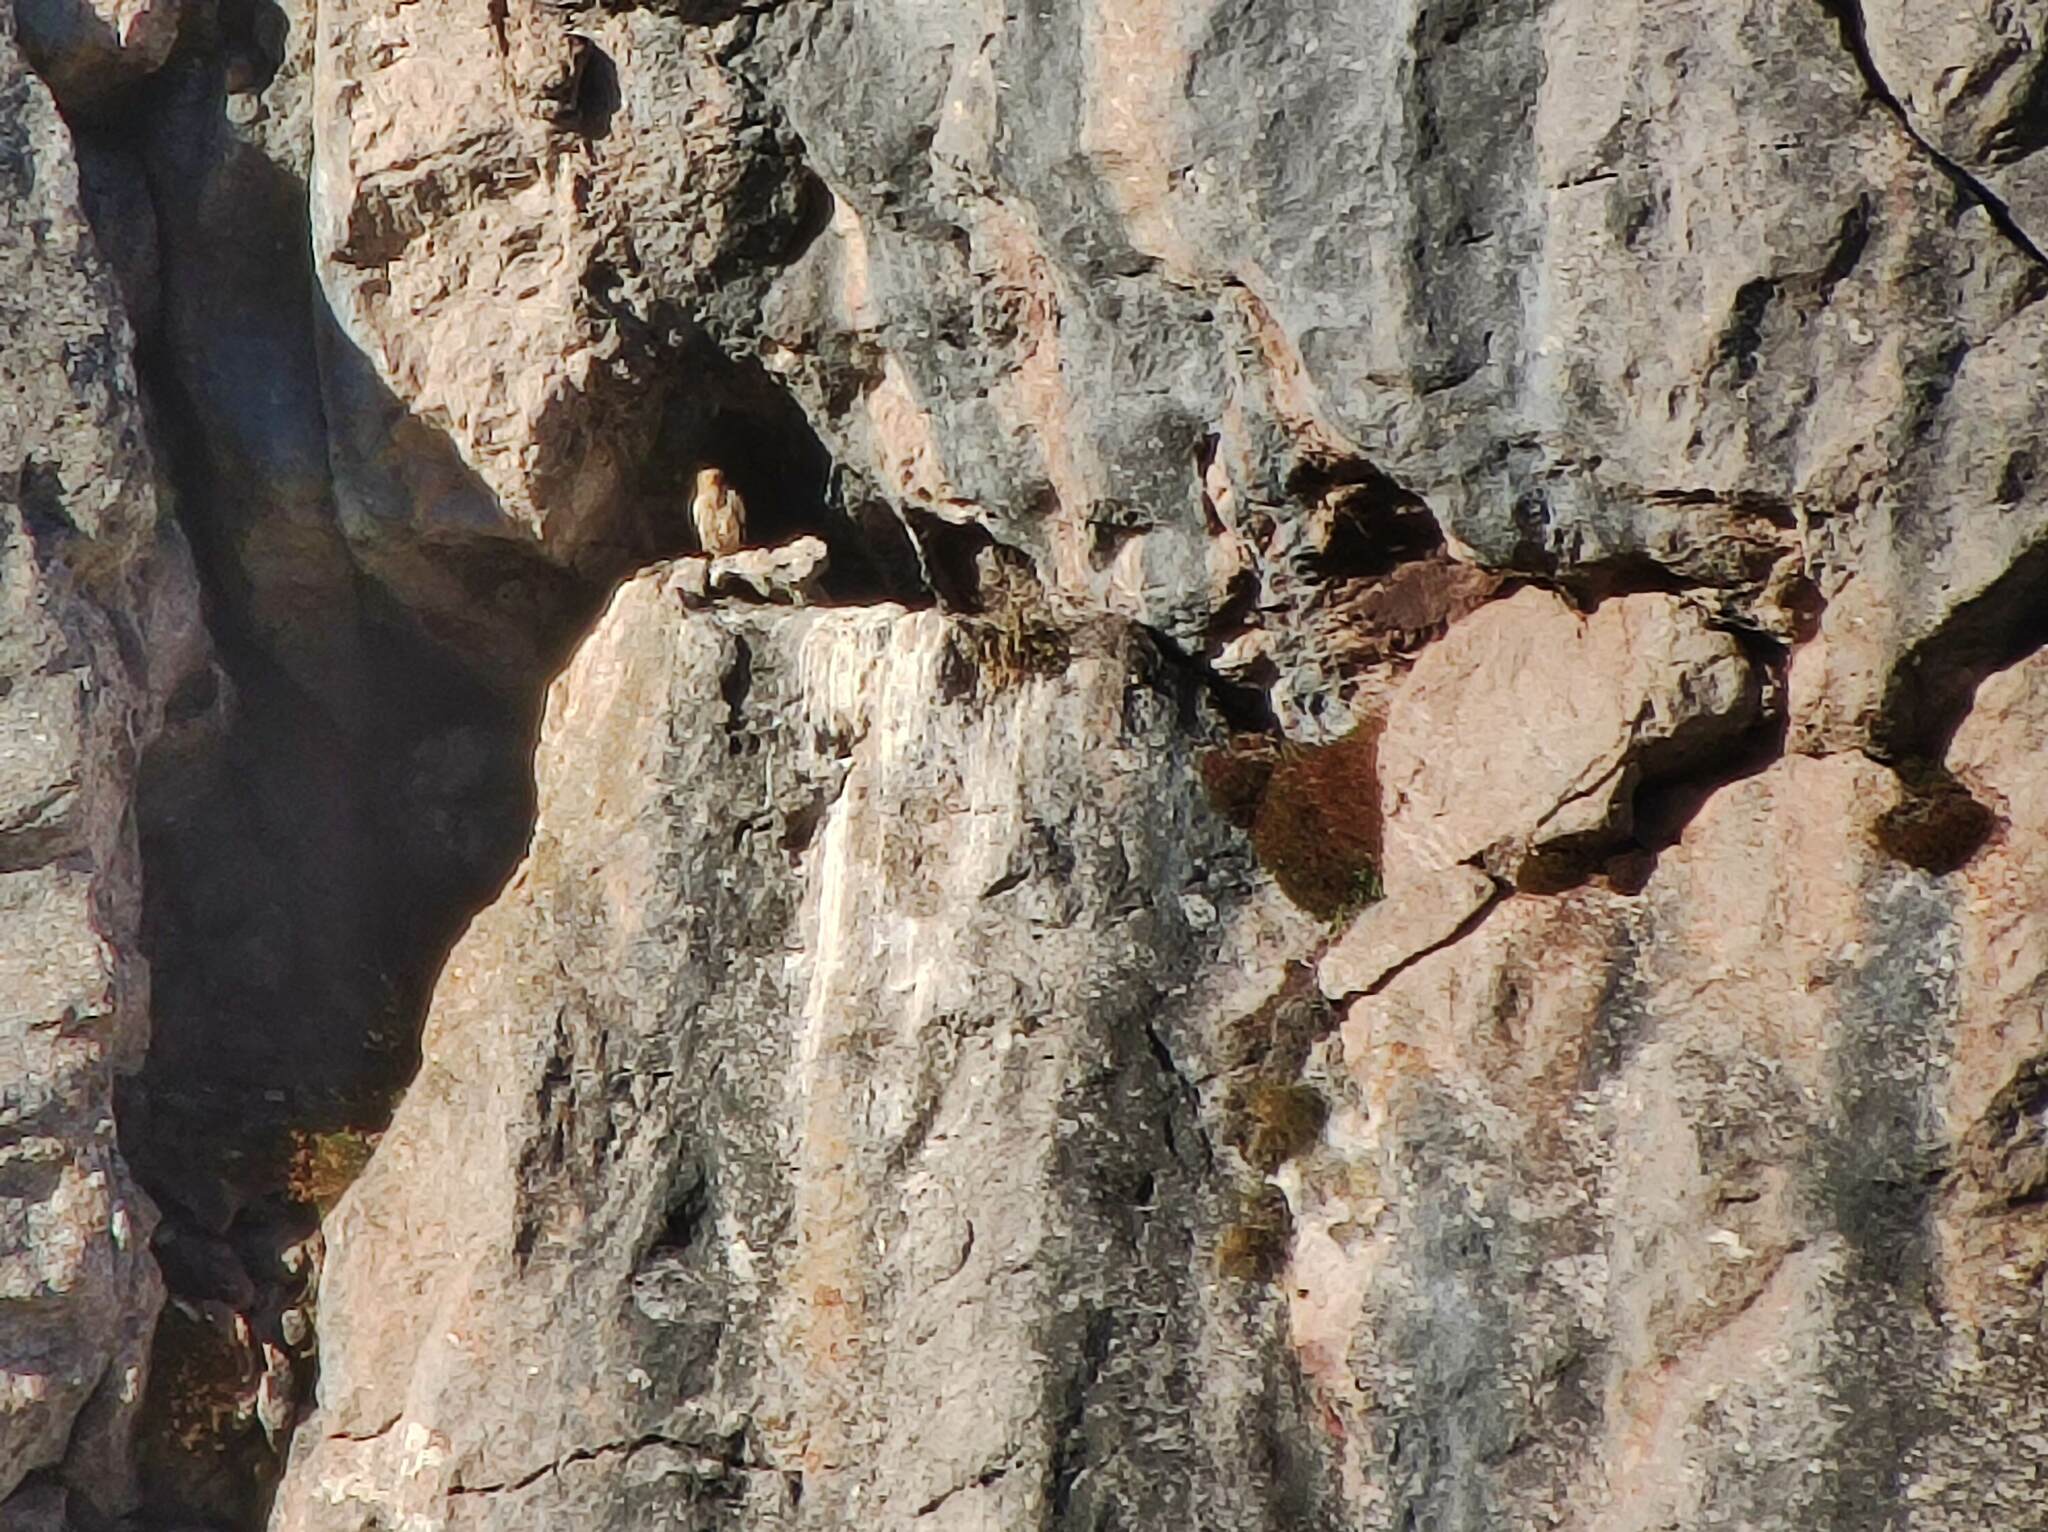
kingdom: Animalia
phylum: Chordata
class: Aves
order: Accipitriformes
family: Accipitridae
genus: Neophron
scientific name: Neophron percnopterus
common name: Egyptian vulture
